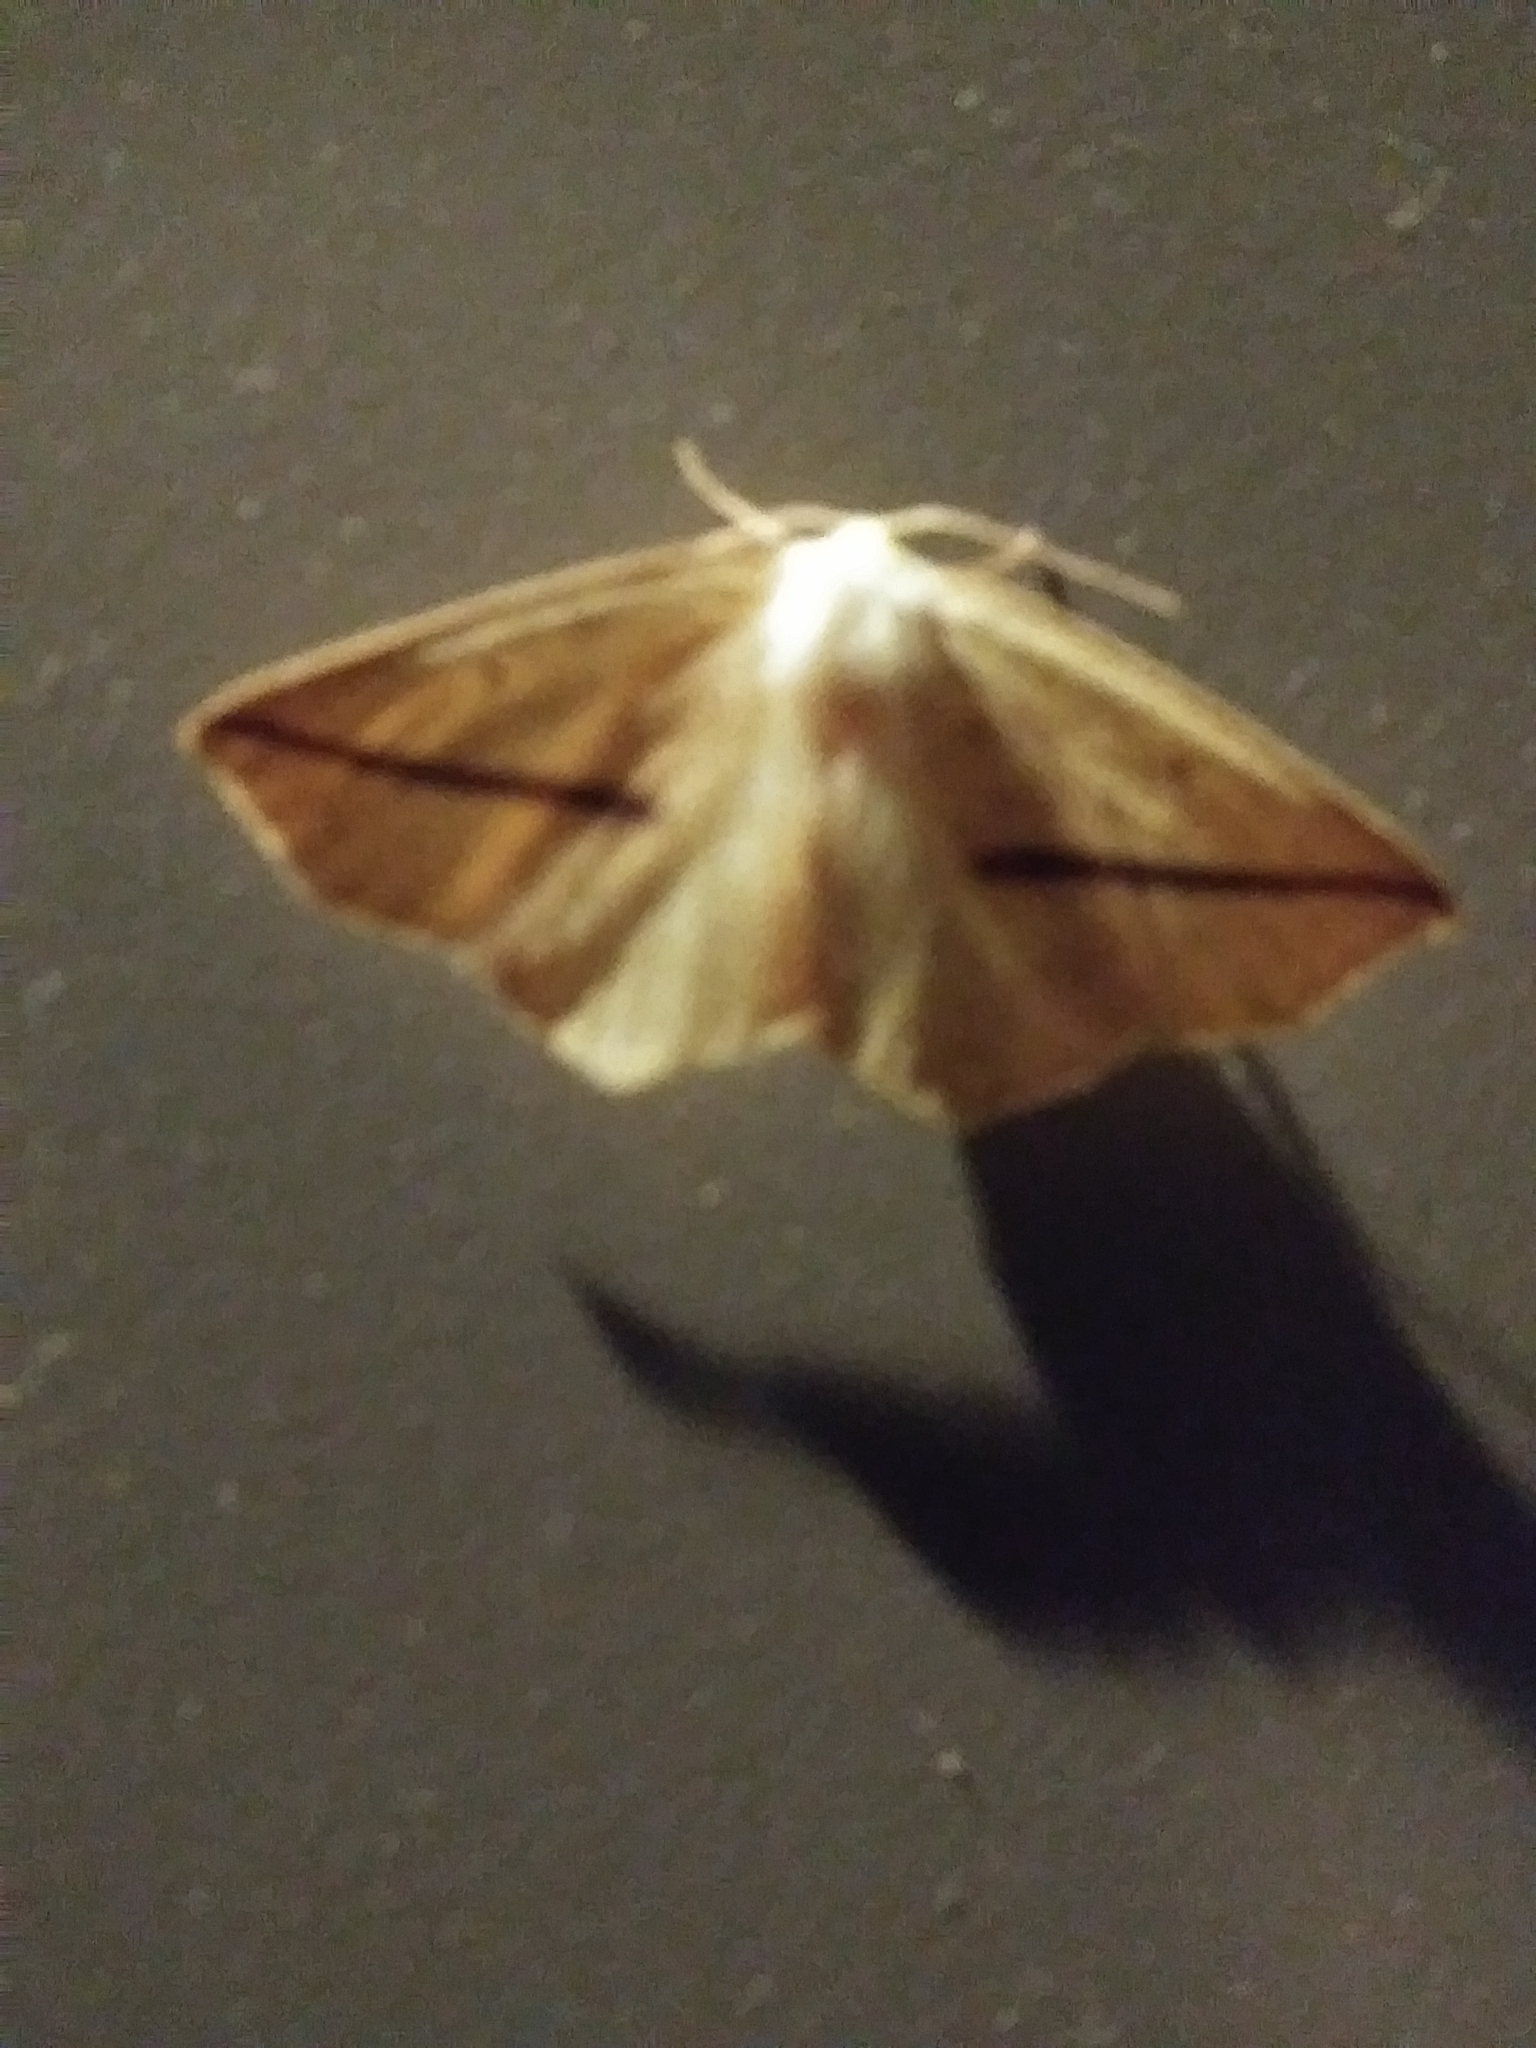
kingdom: Animalia
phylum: Arthropoda
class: Insecta
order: Lepidoptera
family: Geometridae
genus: Tetracis
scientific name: Tetracis crocallata
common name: Yellow slant-line
